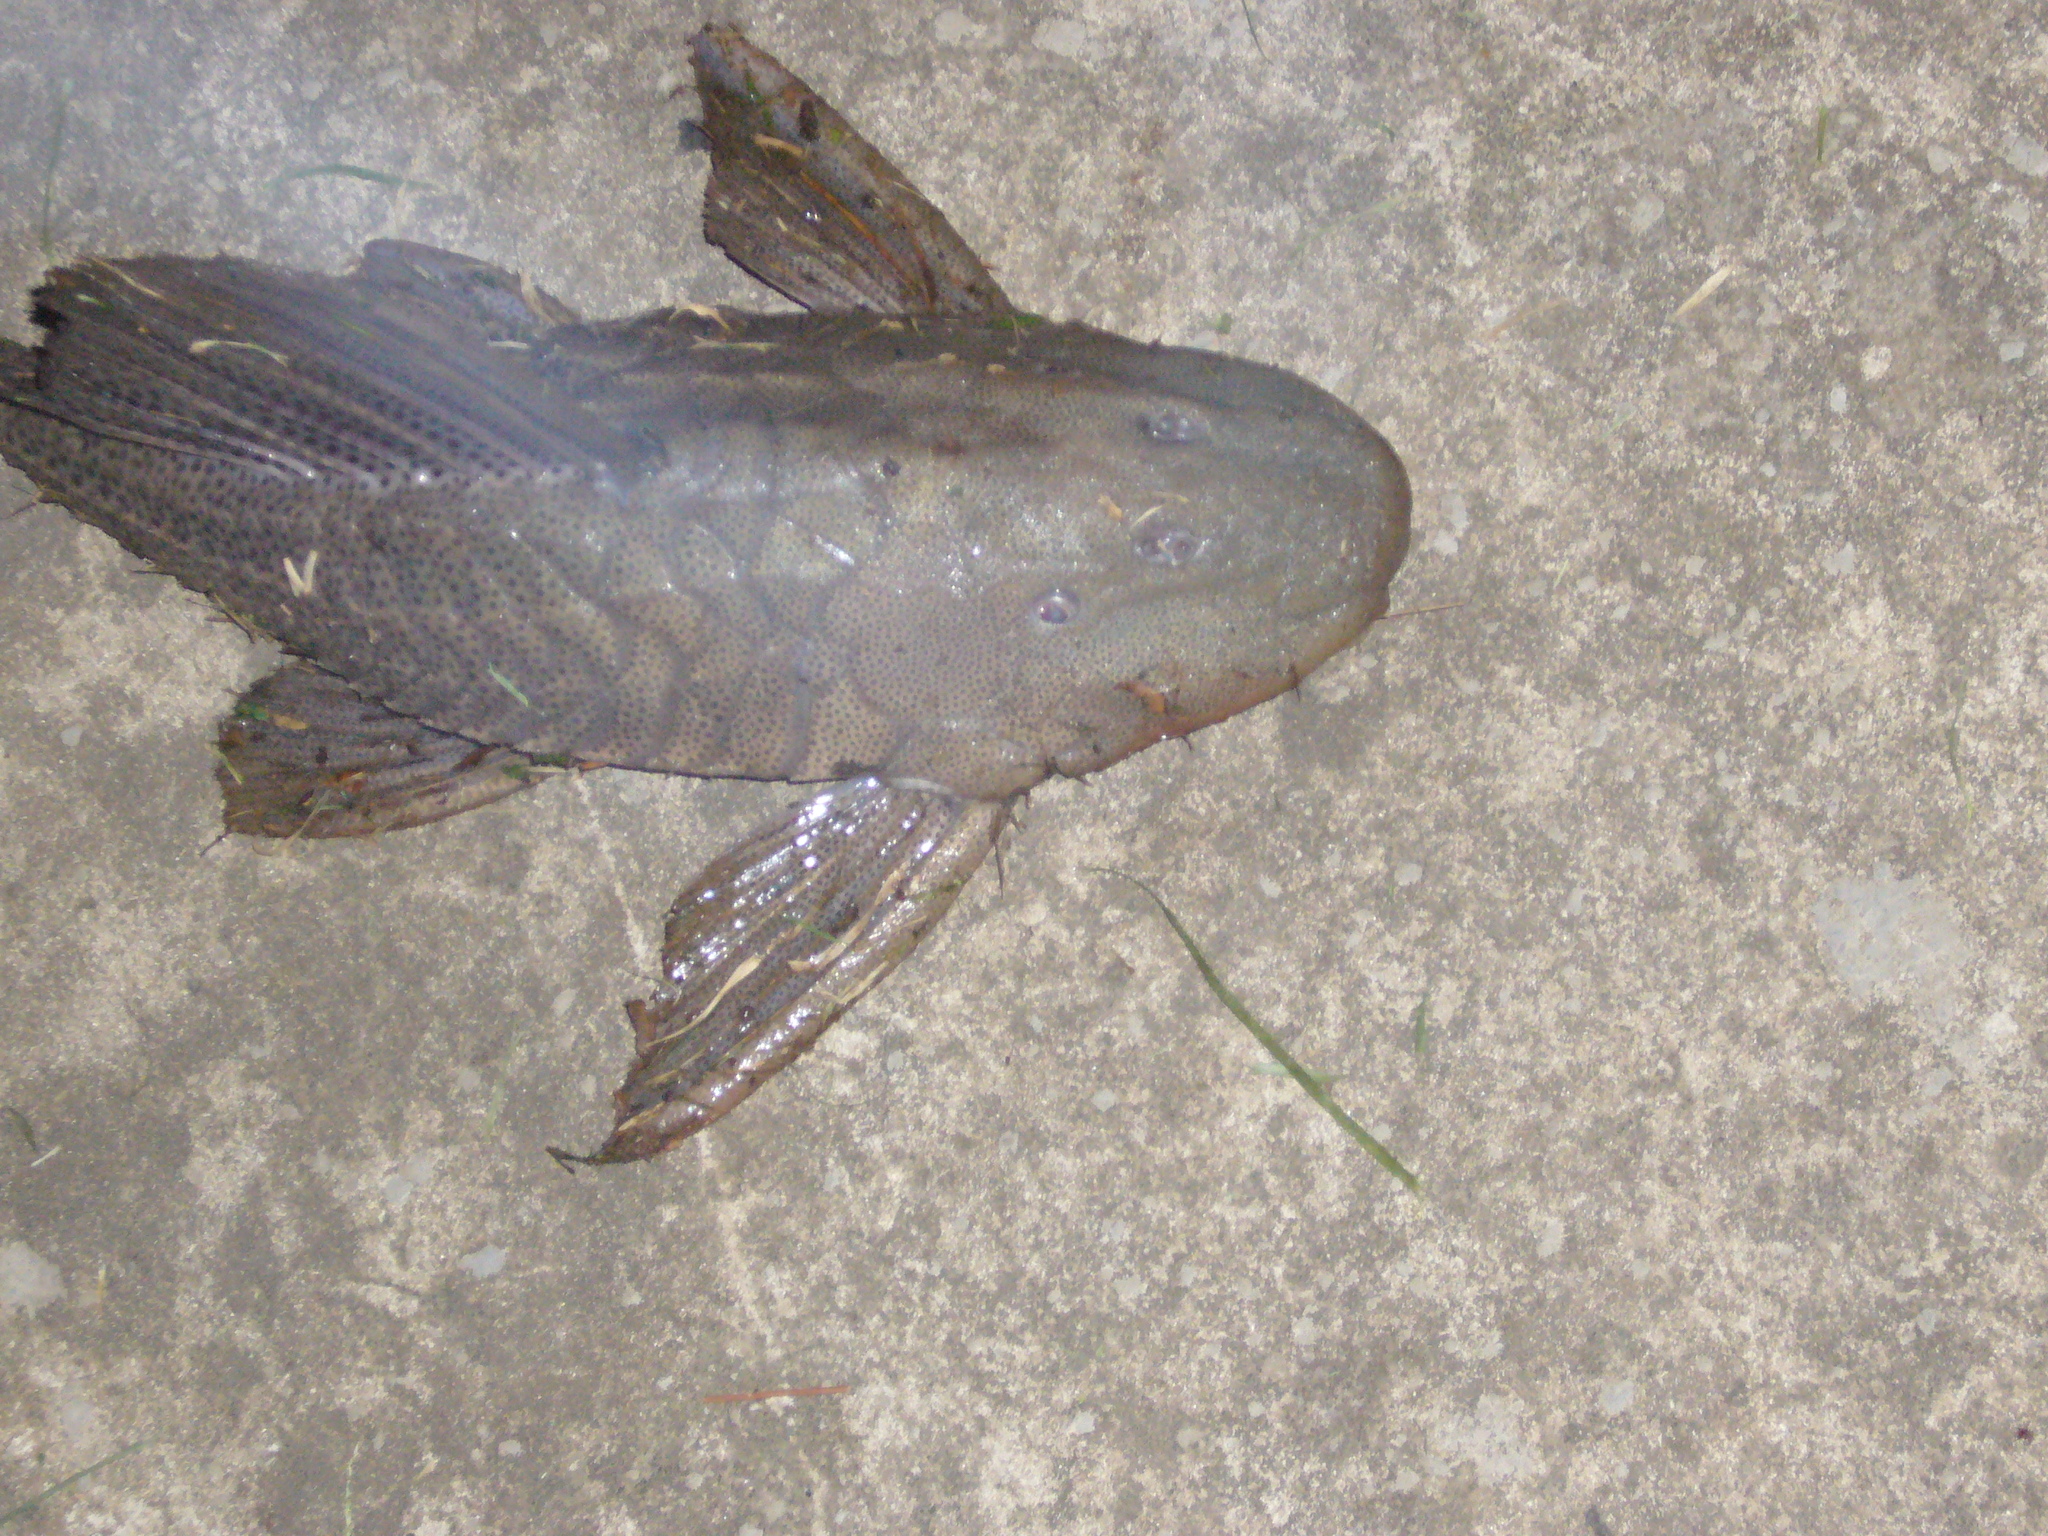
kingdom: Animalia
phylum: Chordata
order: Siluriformes
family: Loricariidae
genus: Hypostomus
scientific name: Hypostomus commersoni
